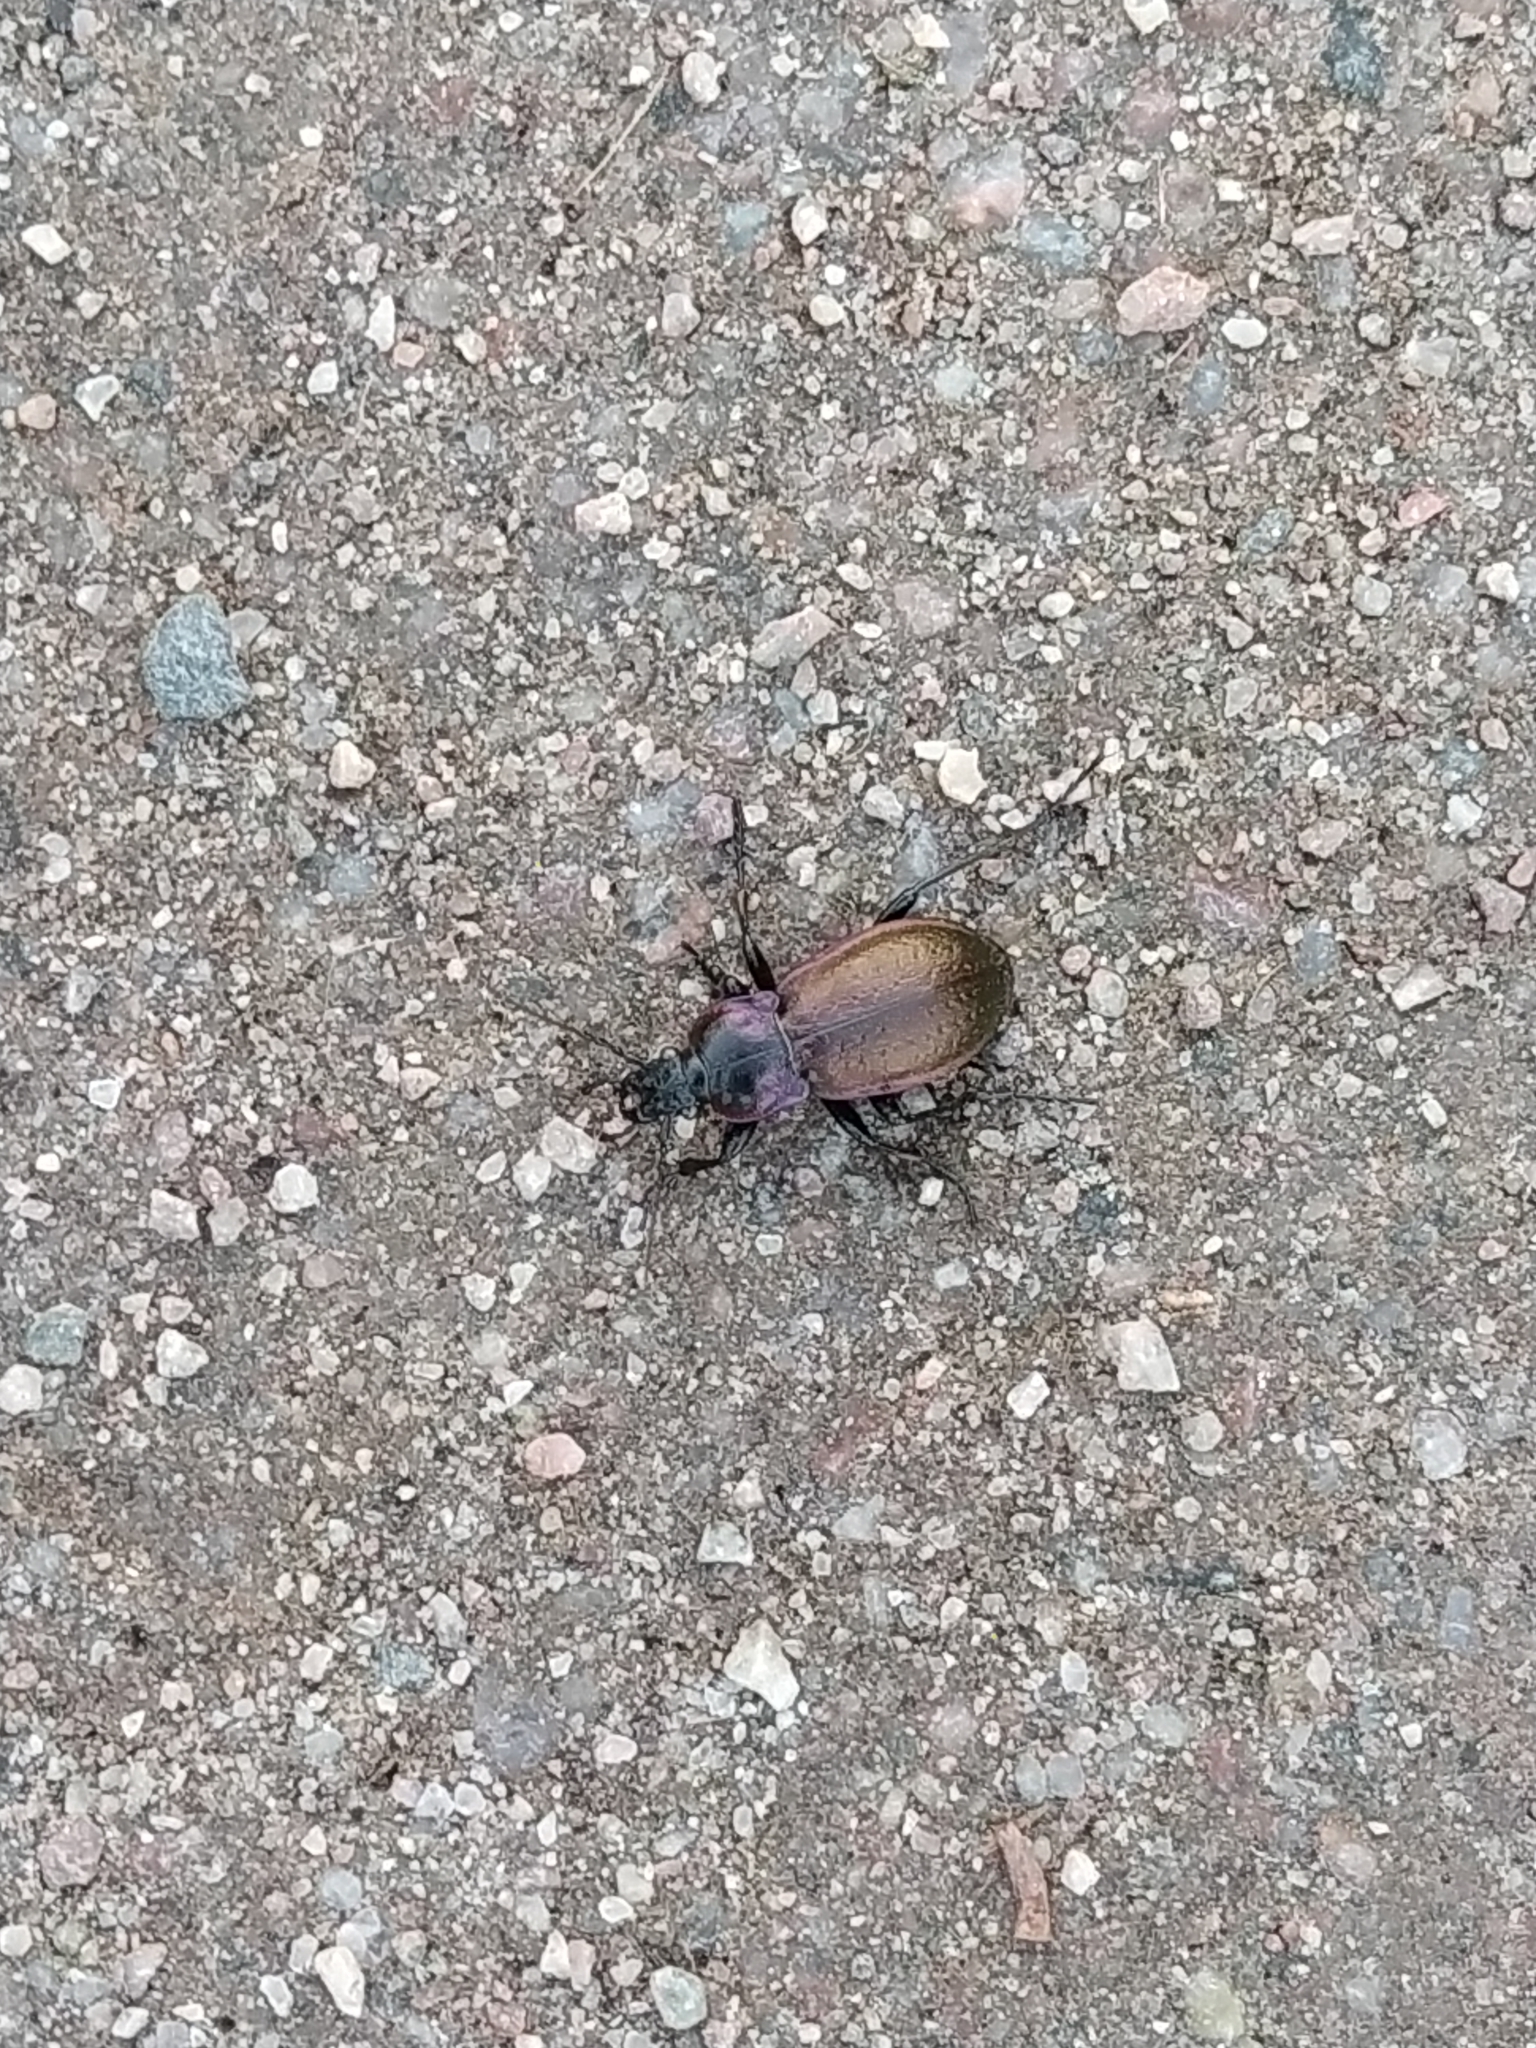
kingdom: Animalia
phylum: Arthropoda
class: Insecta
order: Coleoptera
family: Carabidae
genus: Carabus
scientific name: Carabus nemoralis
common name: European ground beetle
